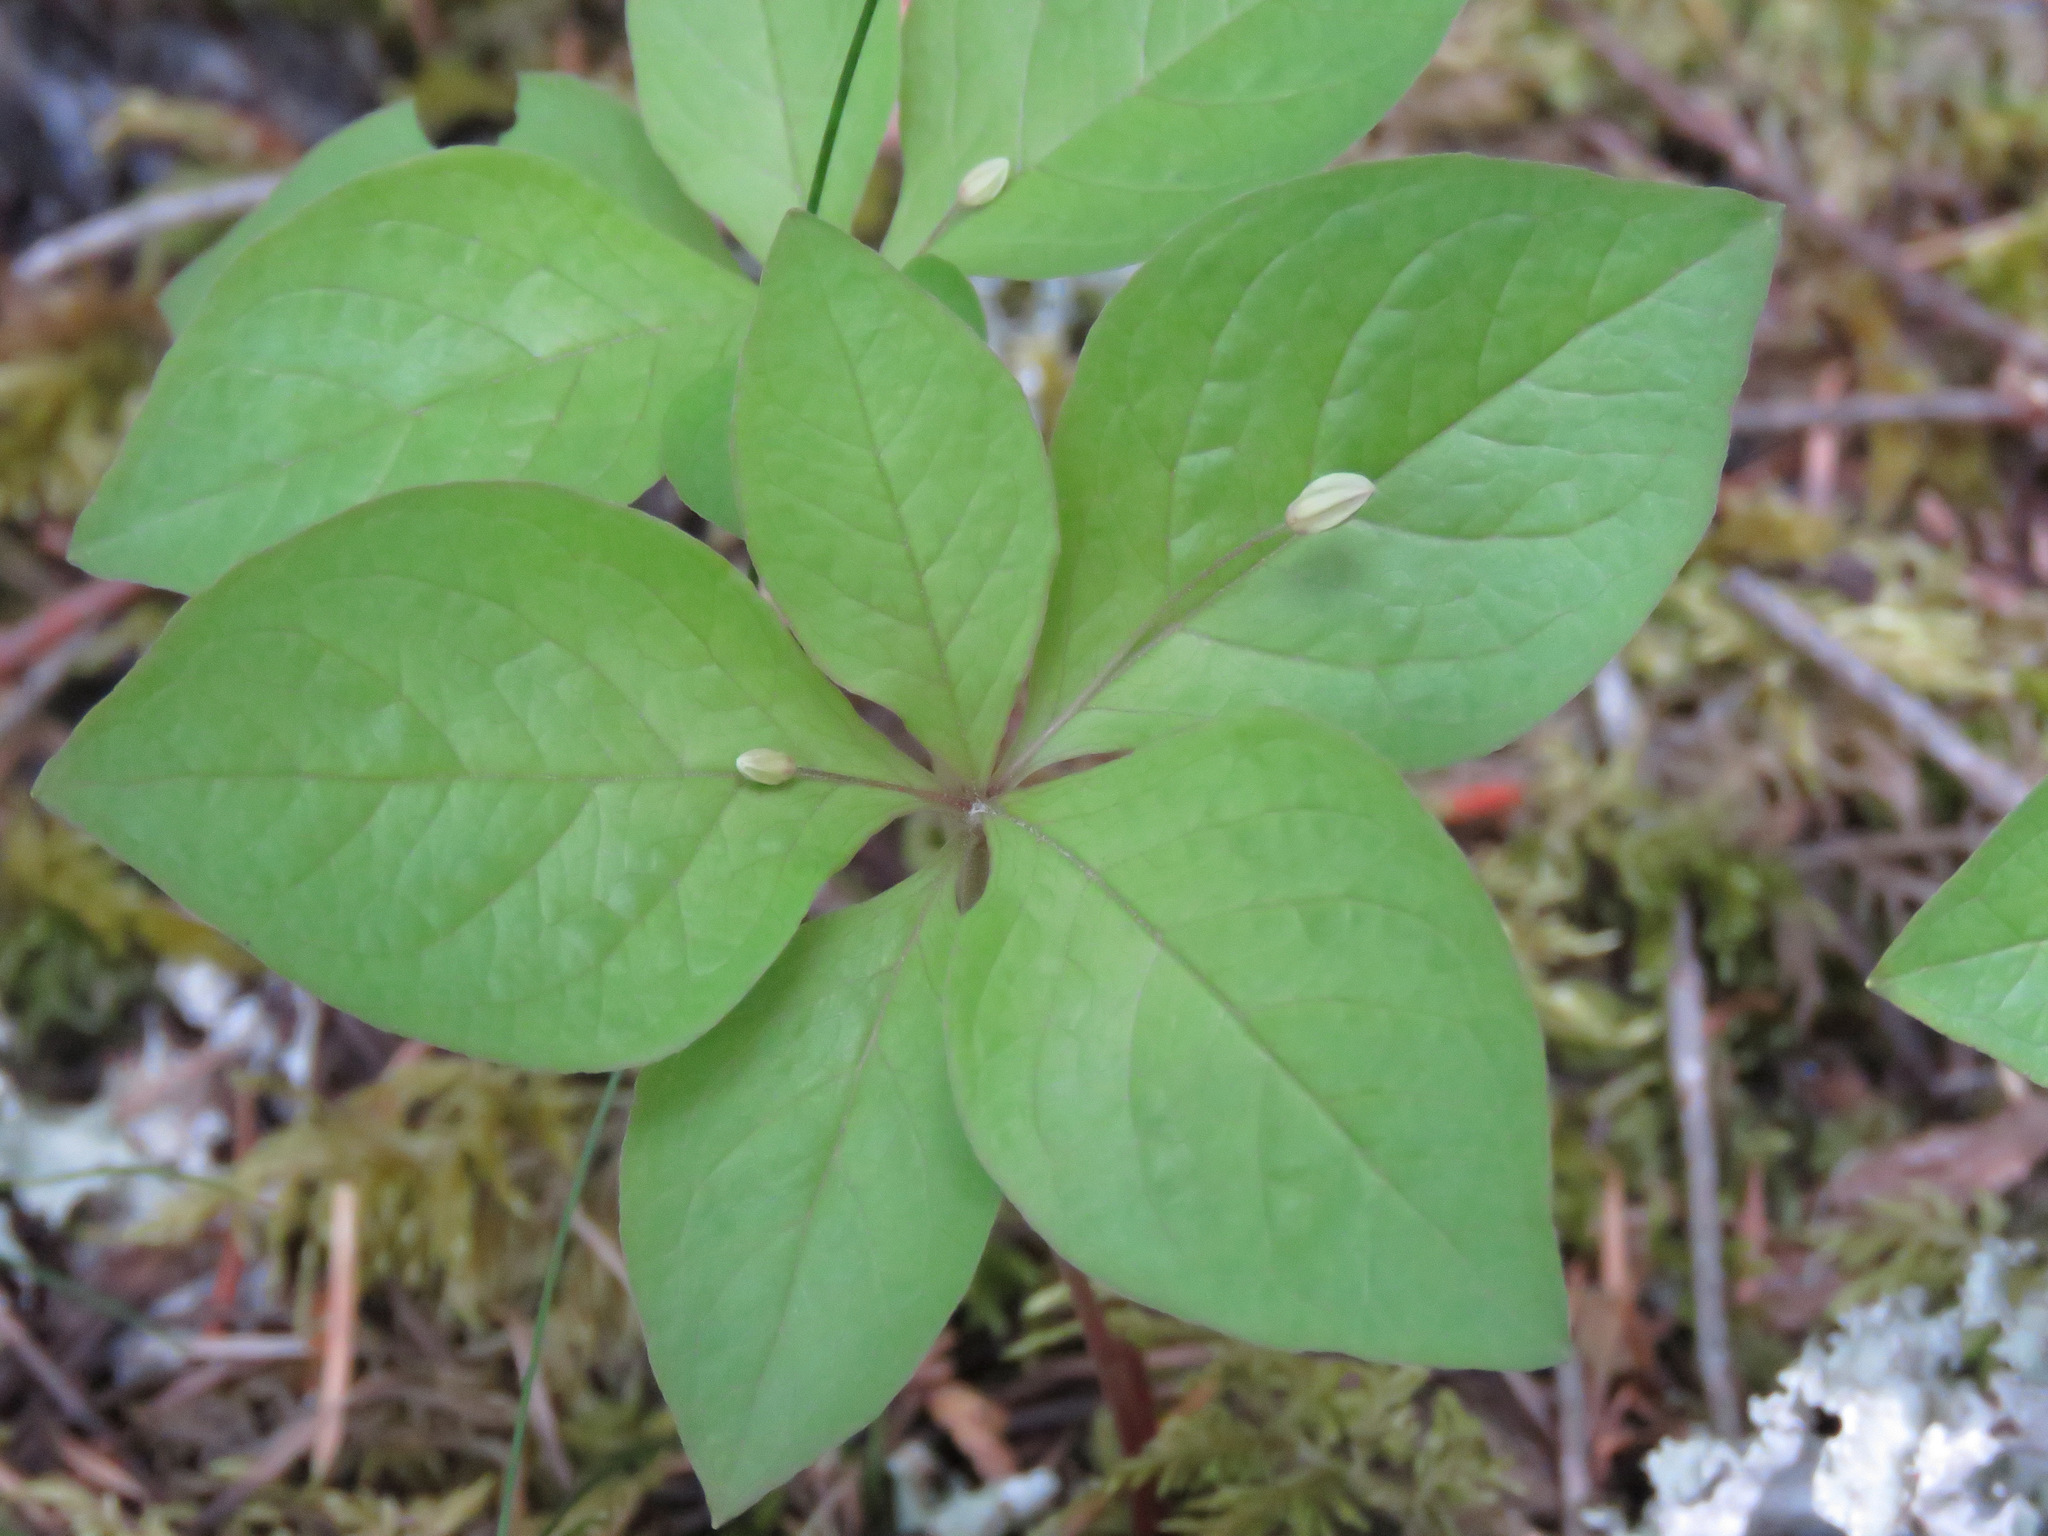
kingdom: Plantae
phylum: Tracheophyta
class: Magnoliopsida
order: Ericales
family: Primulaceae
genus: Lysimachia
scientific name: Lysimachia latifolia
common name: Pacific starflower
